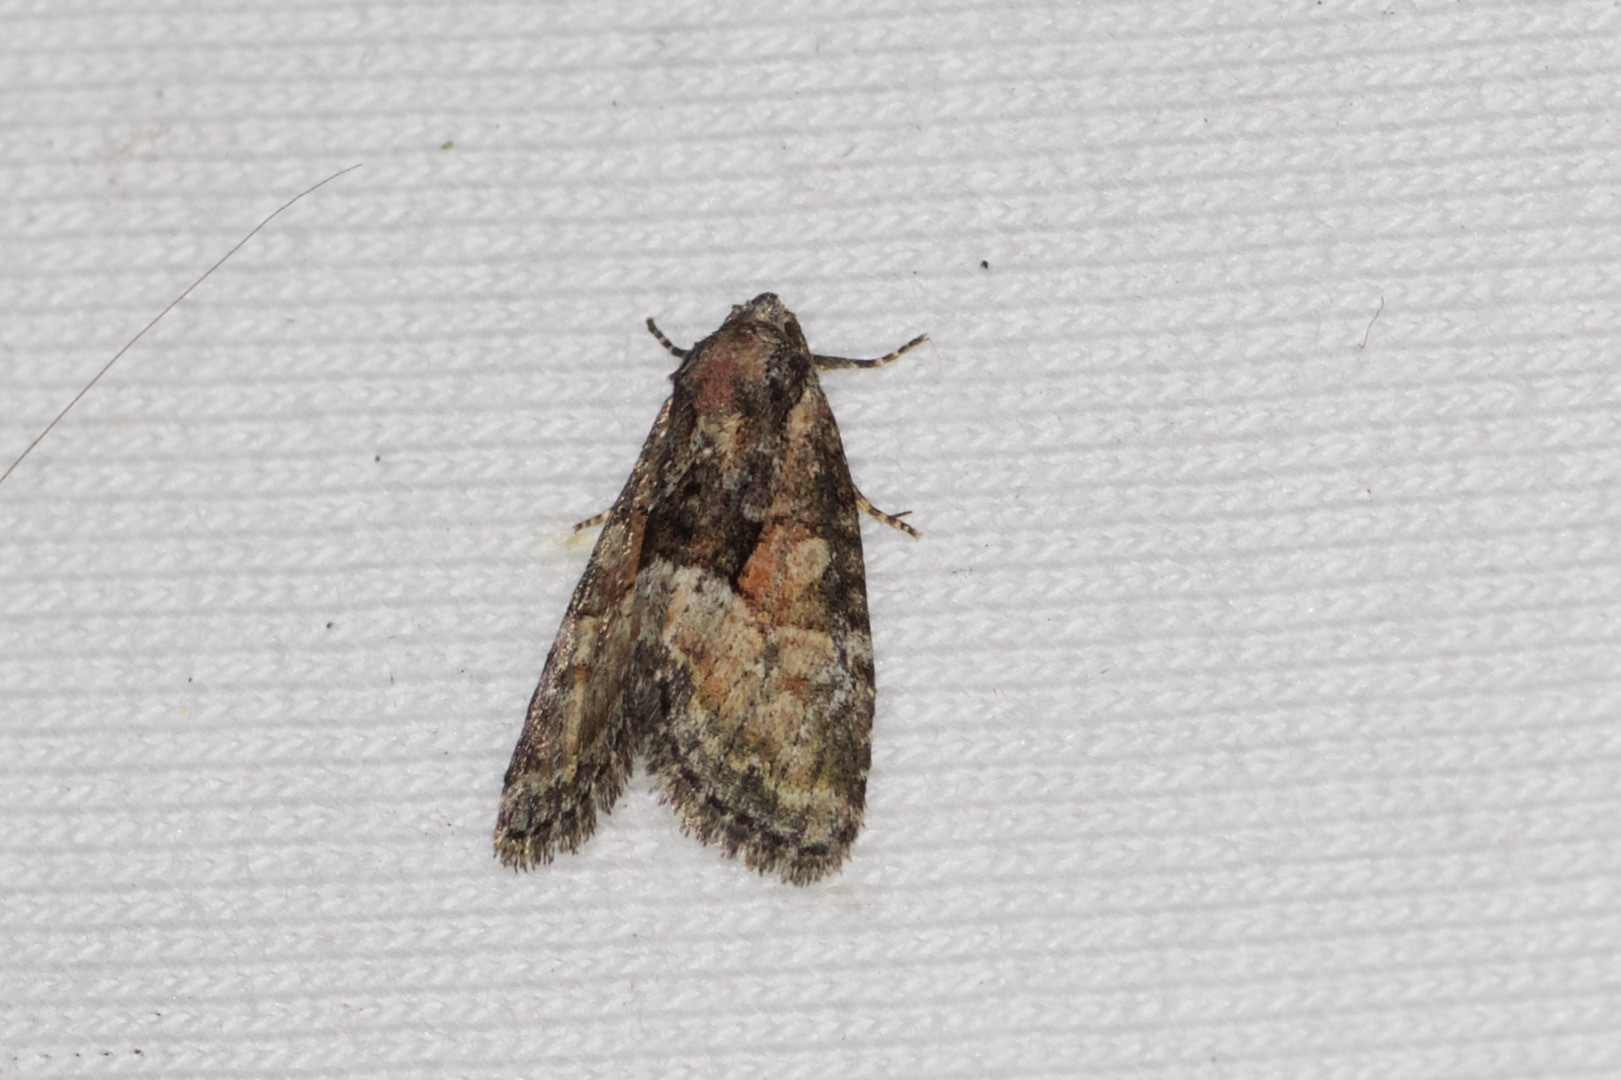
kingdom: Animalia
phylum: Arthropoda
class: Insecta
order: Lepidoptera
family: Noctuidae
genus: Neoligia
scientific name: Neoligia subjuncta
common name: Connected brocade
